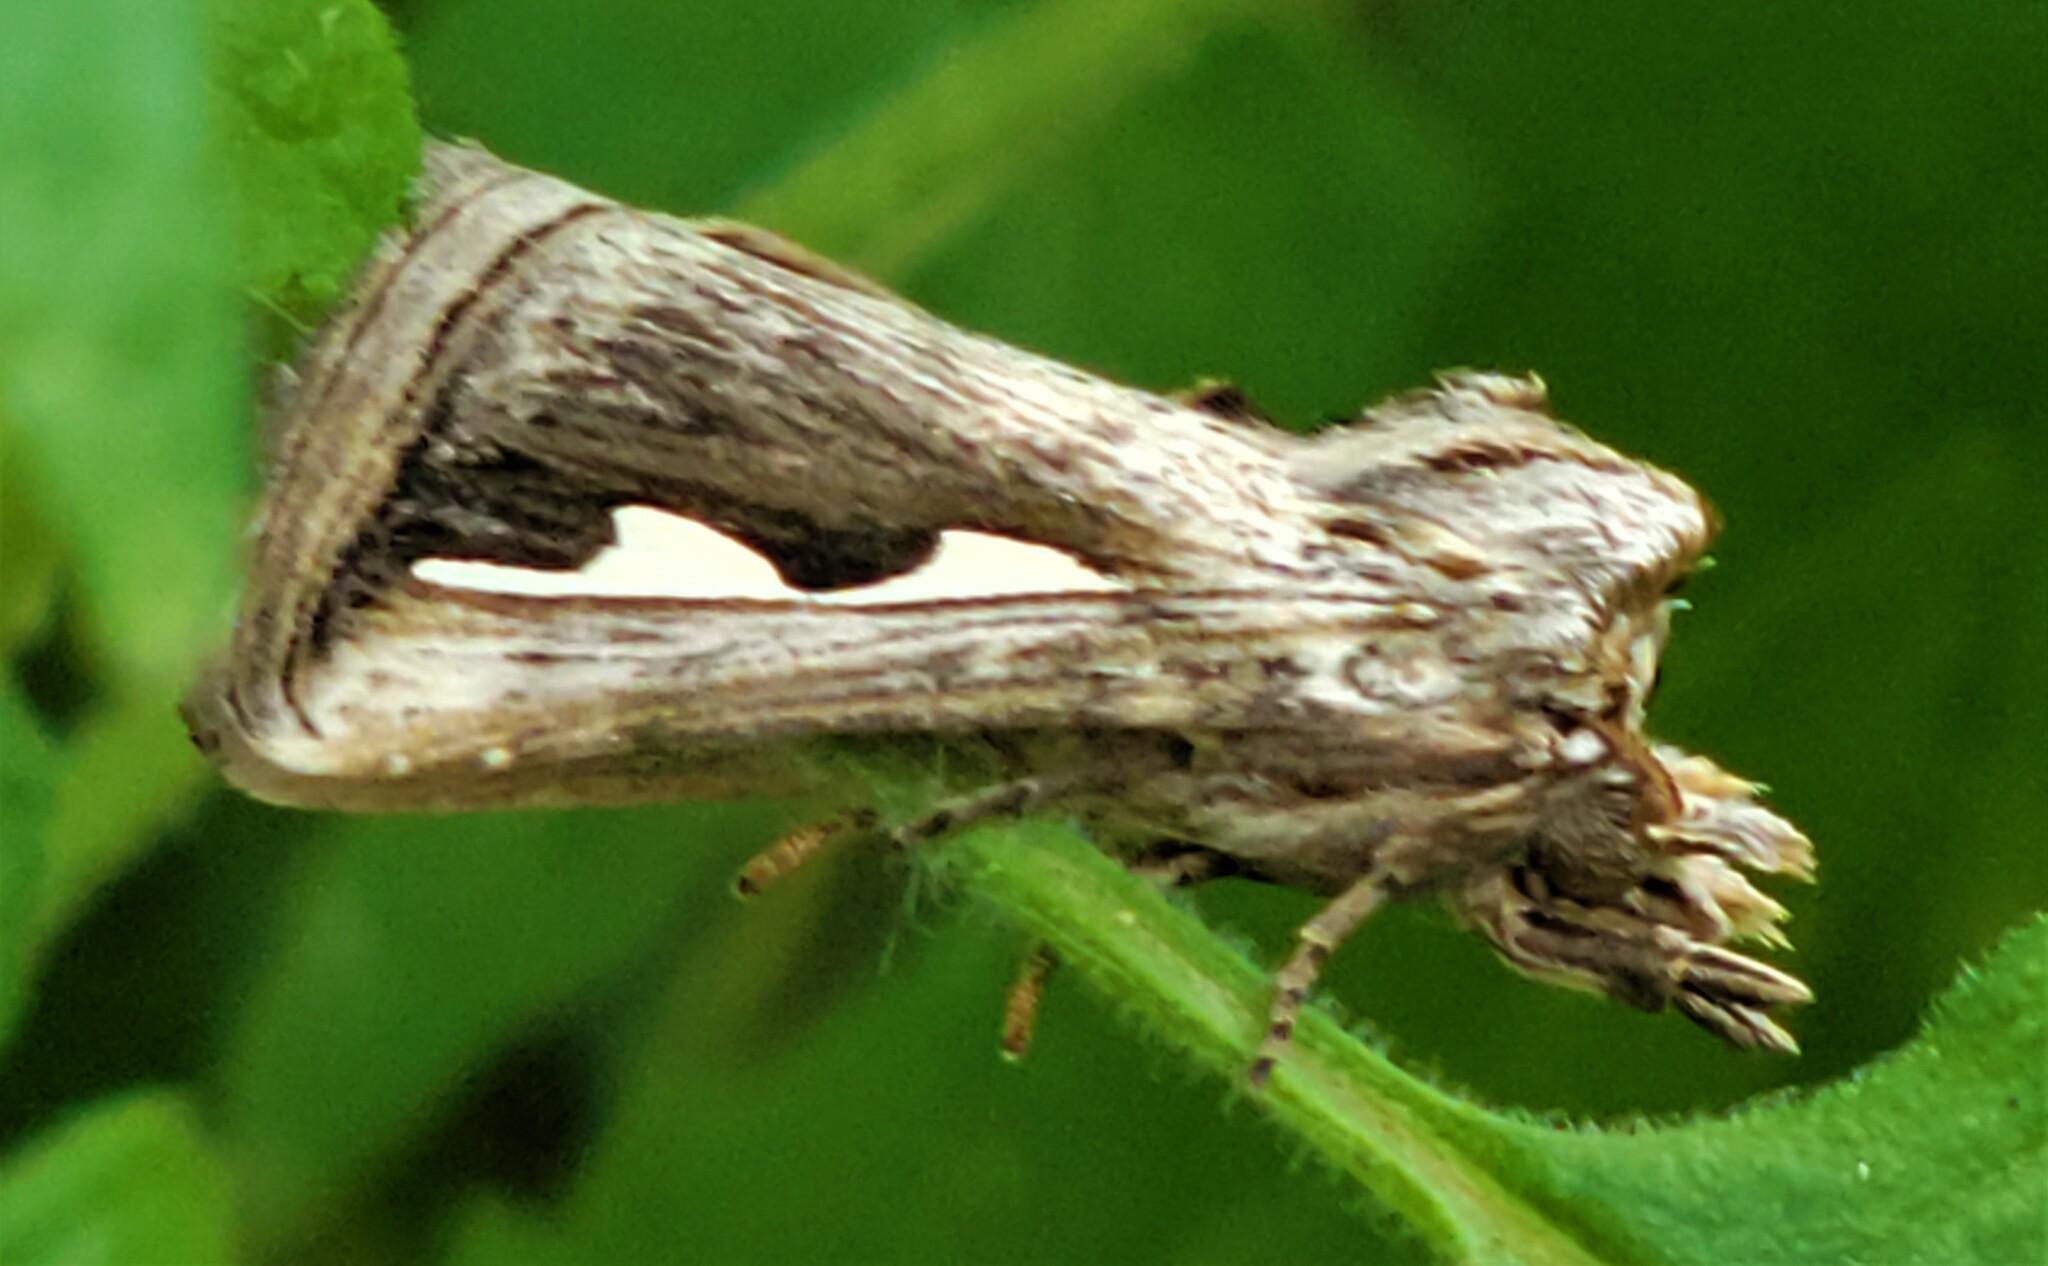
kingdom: Animalia
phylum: Arthropoda
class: Insecta
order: Lepidoptera
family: Notodontidae
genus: Didugua
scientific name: Didugua argentilinea
